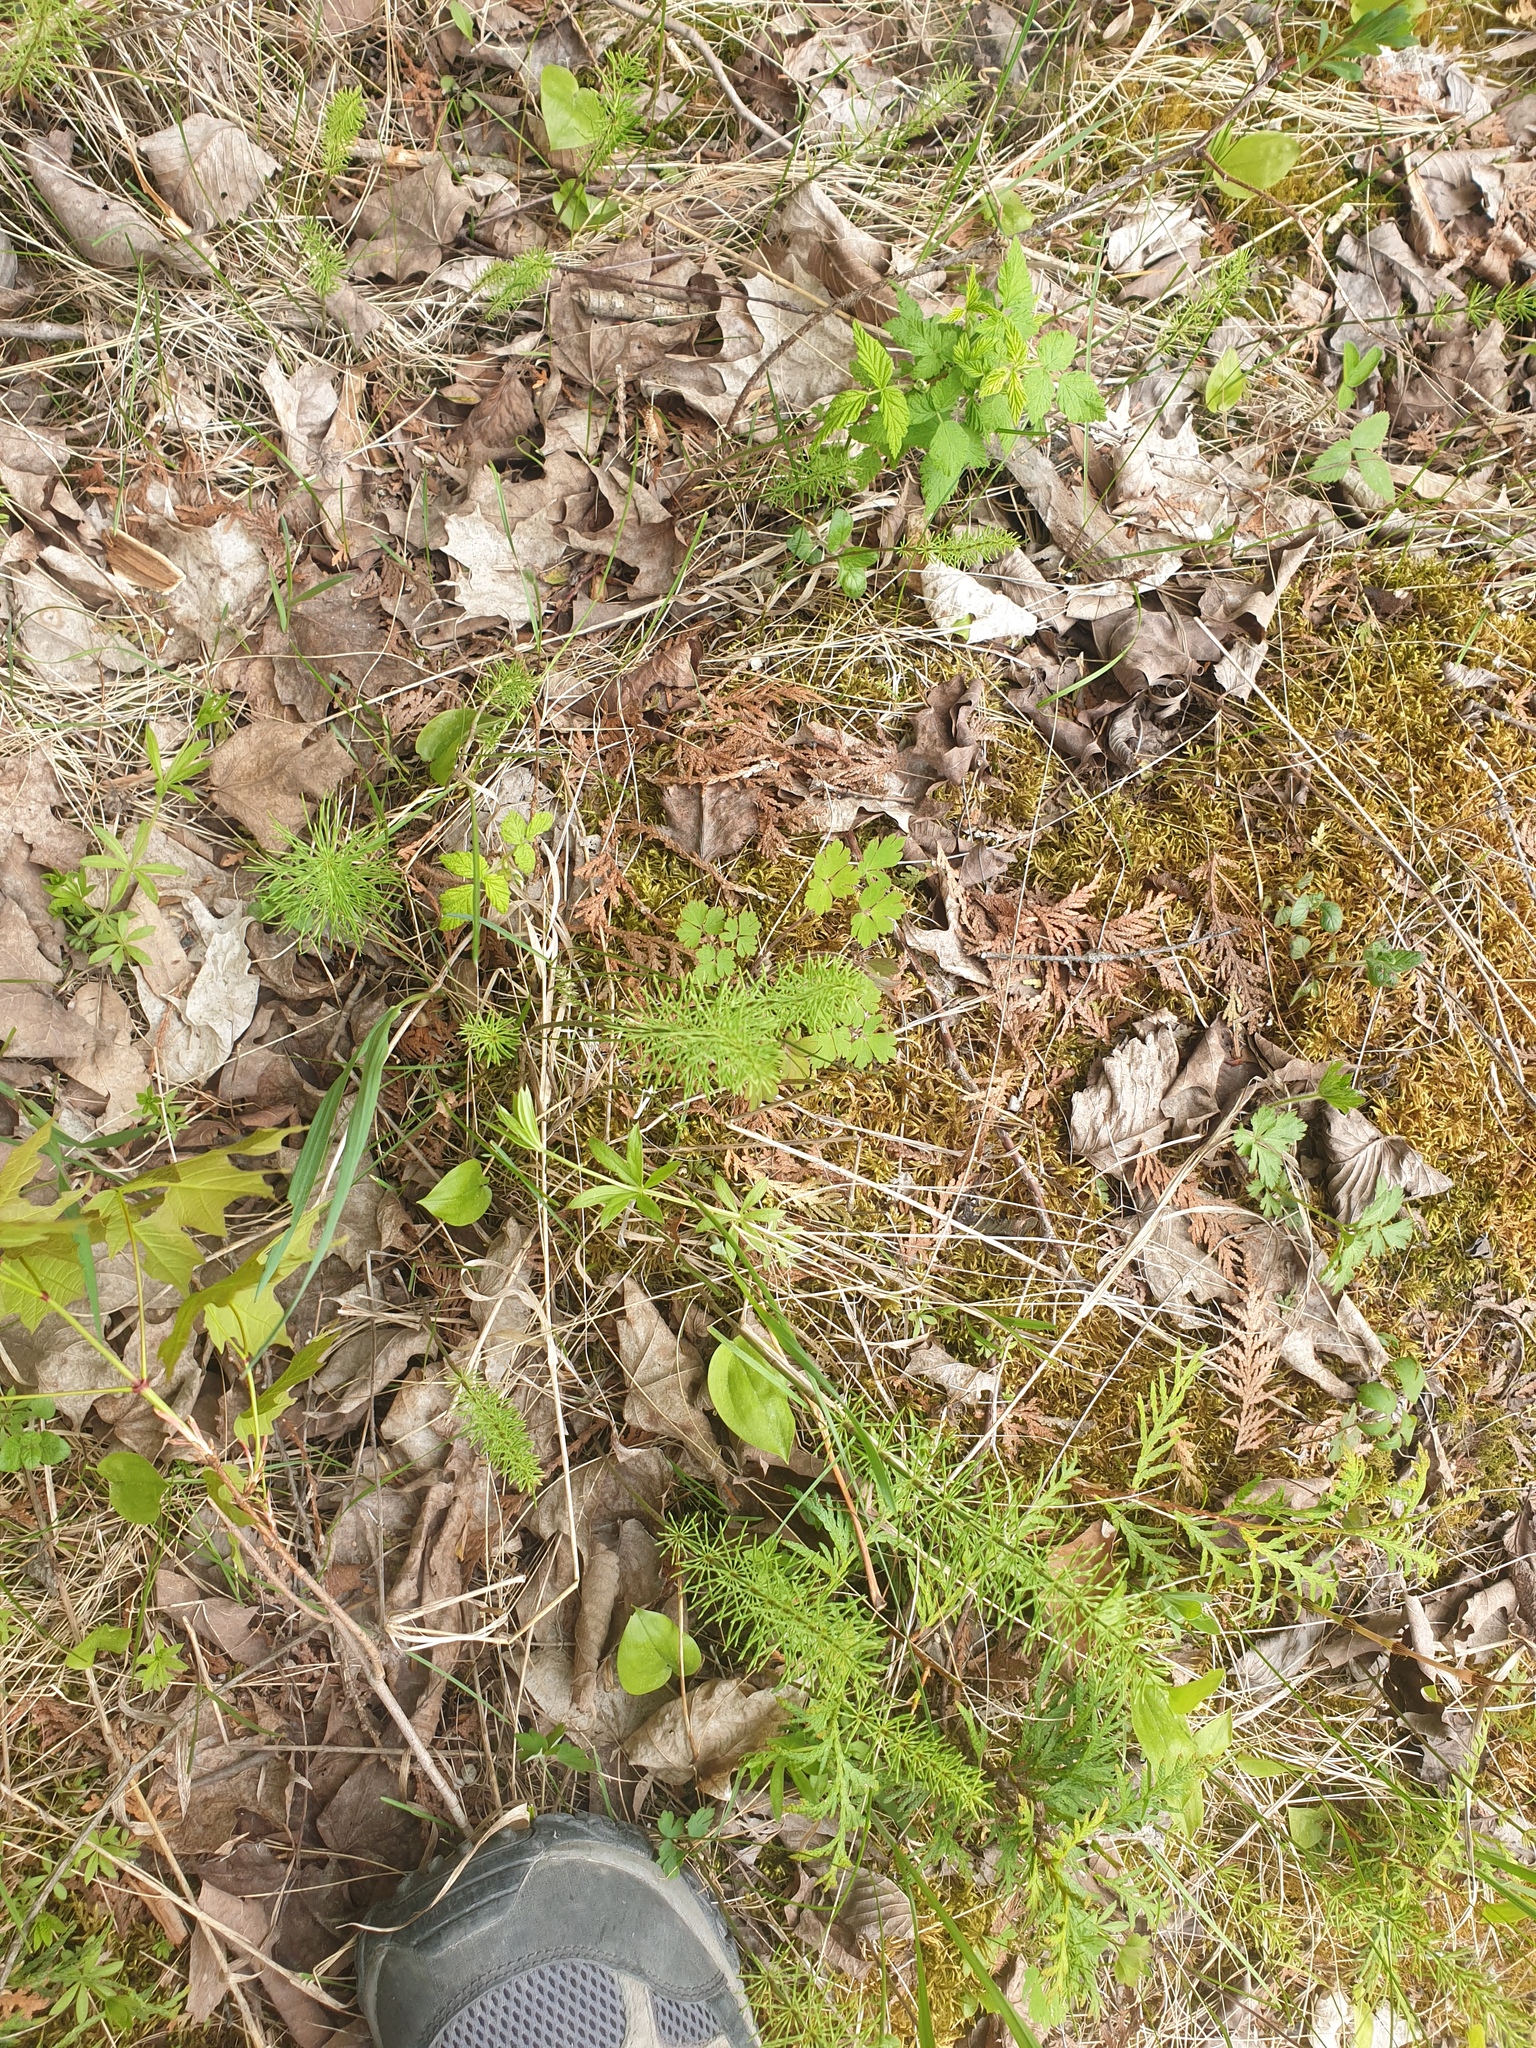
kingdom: Plantae
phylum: Tracheophyta
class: Polypodiopsida
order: Equisetales
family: Equisetaceae
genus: Equisetum
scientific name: Equisetum pratense
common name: Meadow horsetail
